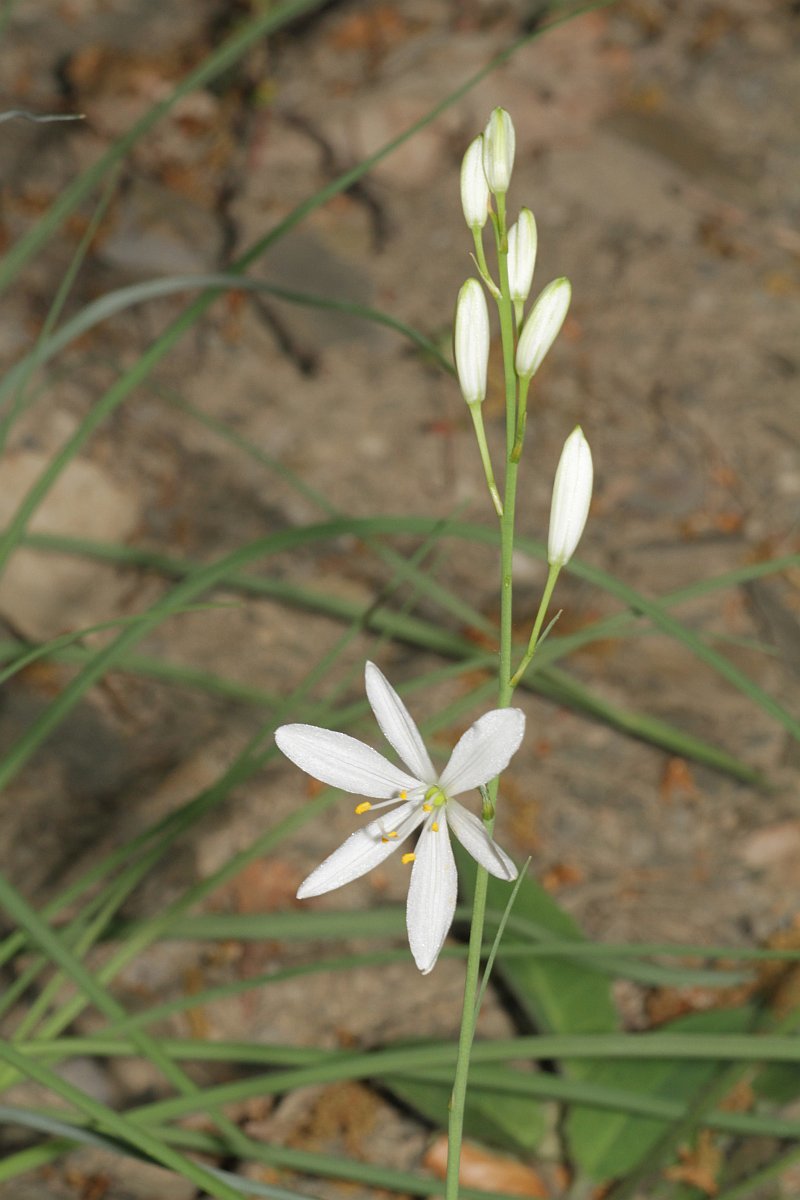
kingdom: Plantae
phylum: Tracheophyta
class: Liliopsida
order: Asparagales
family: Asparagaceae
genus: Anthericum
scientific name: Anthericum liliago
